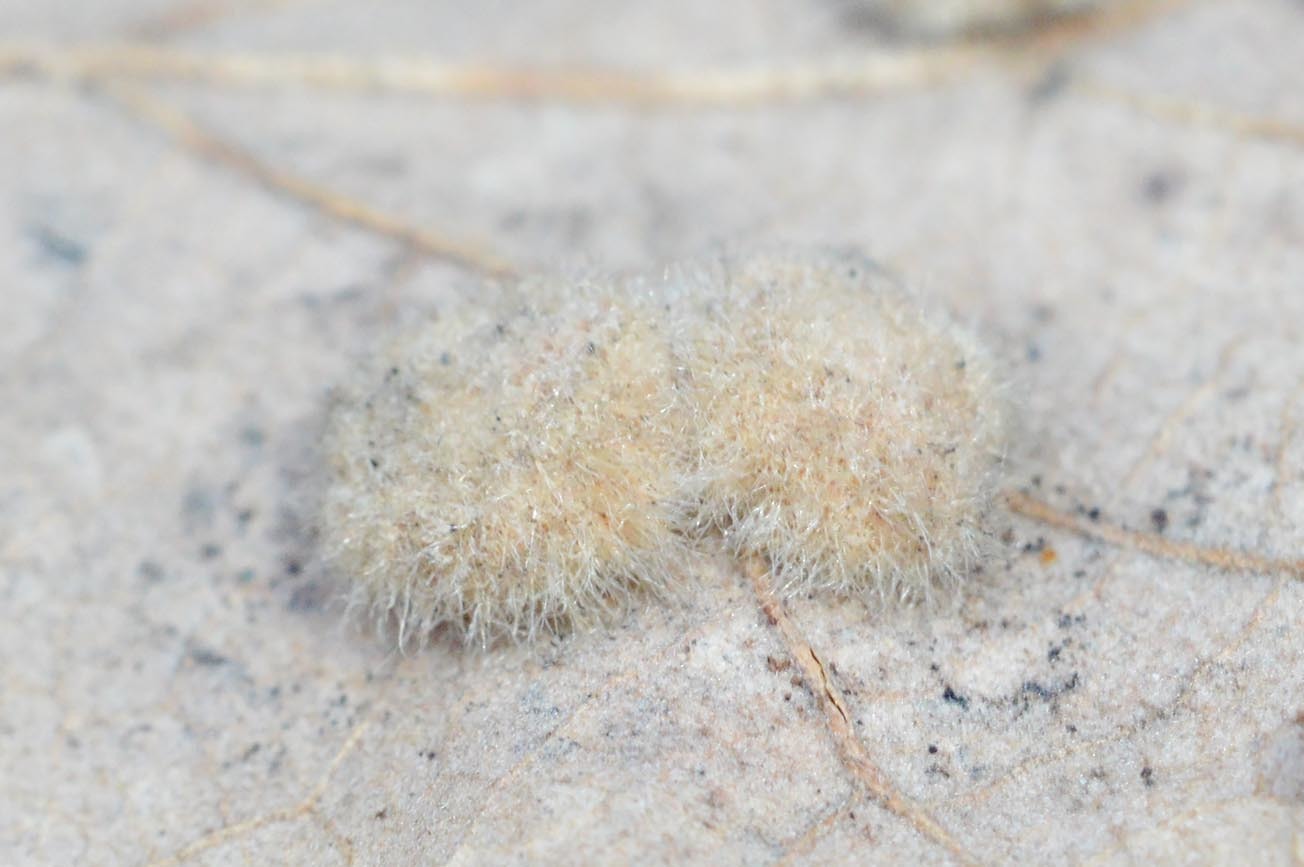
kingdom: Animalia
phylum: Arthropoda
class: Insecta
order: Diptera
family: Cecidomyiidae
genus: Dryomyia
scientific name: Dryomyia circinans
